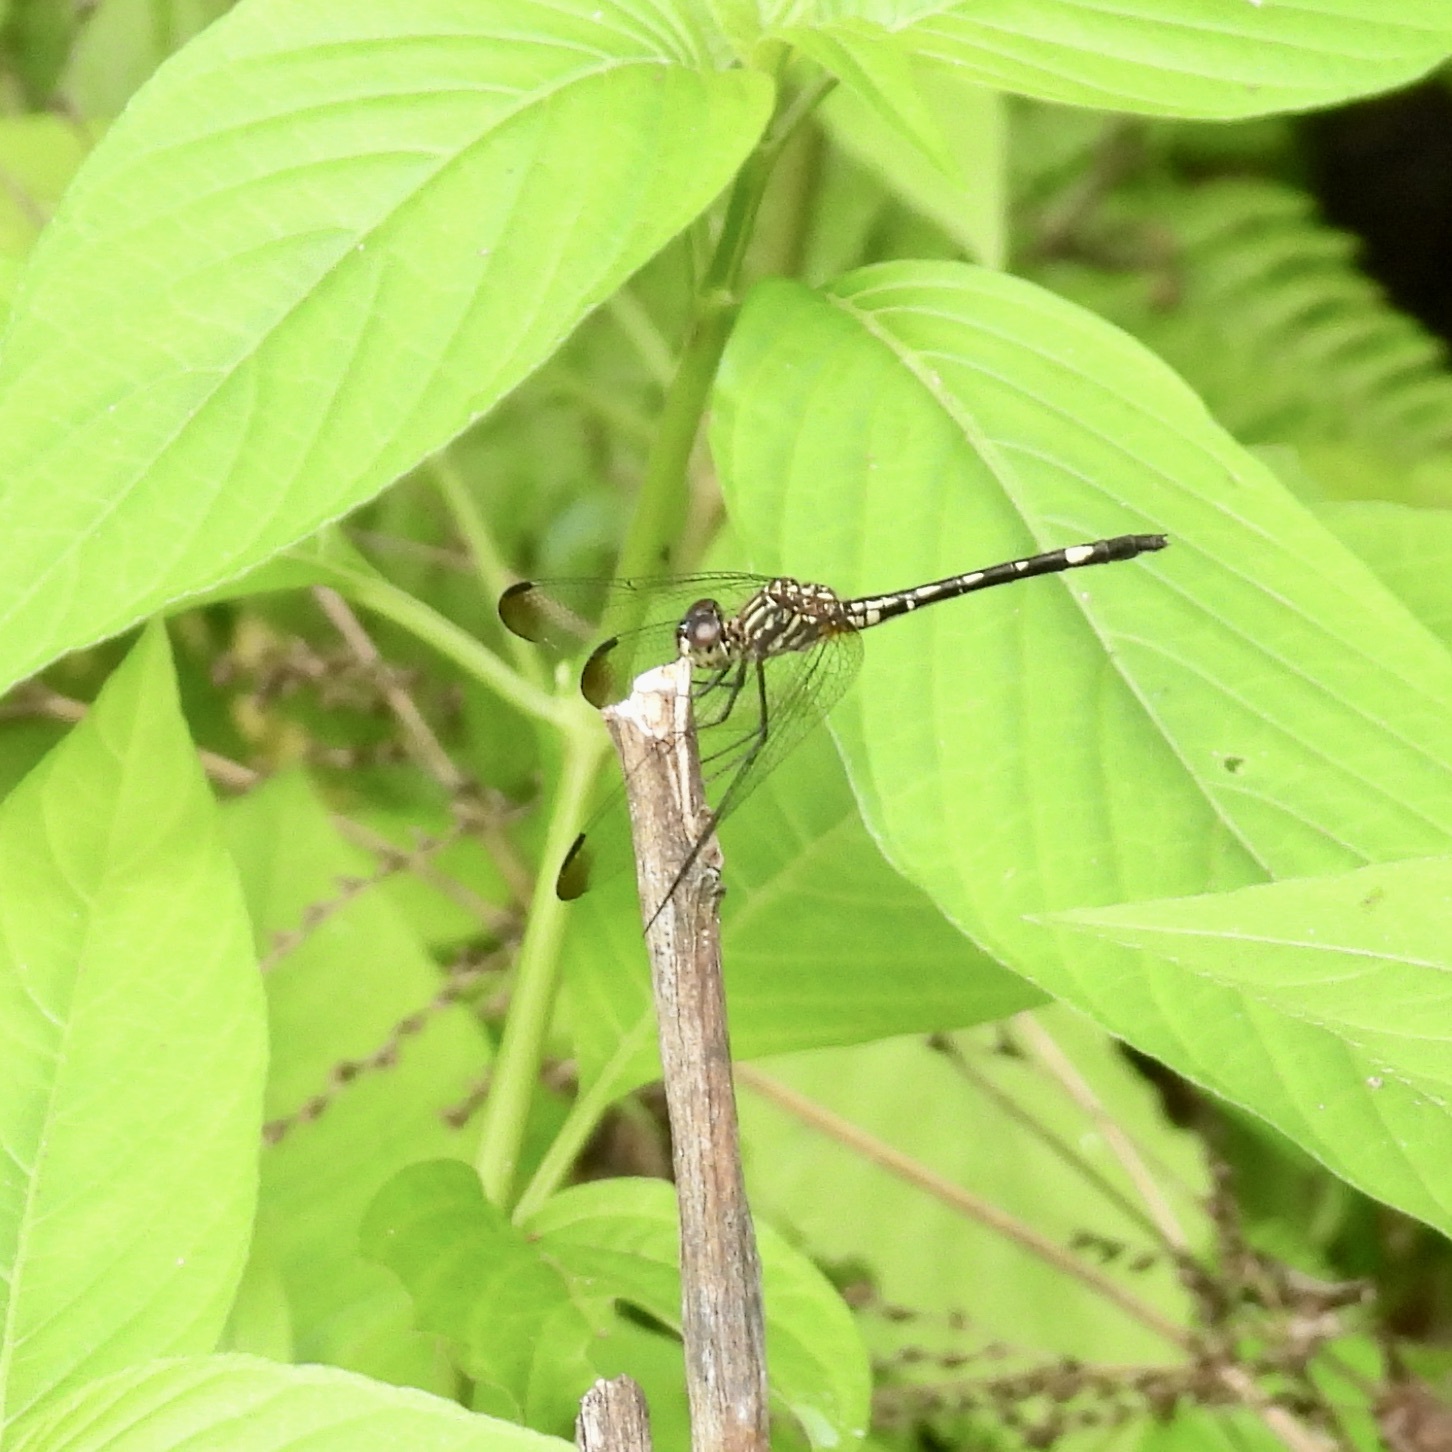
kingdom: Animalia
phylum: Arthropoda
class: Insecta
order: Odonata
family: Libellulidae
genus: Dythemis
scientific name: Dythemis nigra
